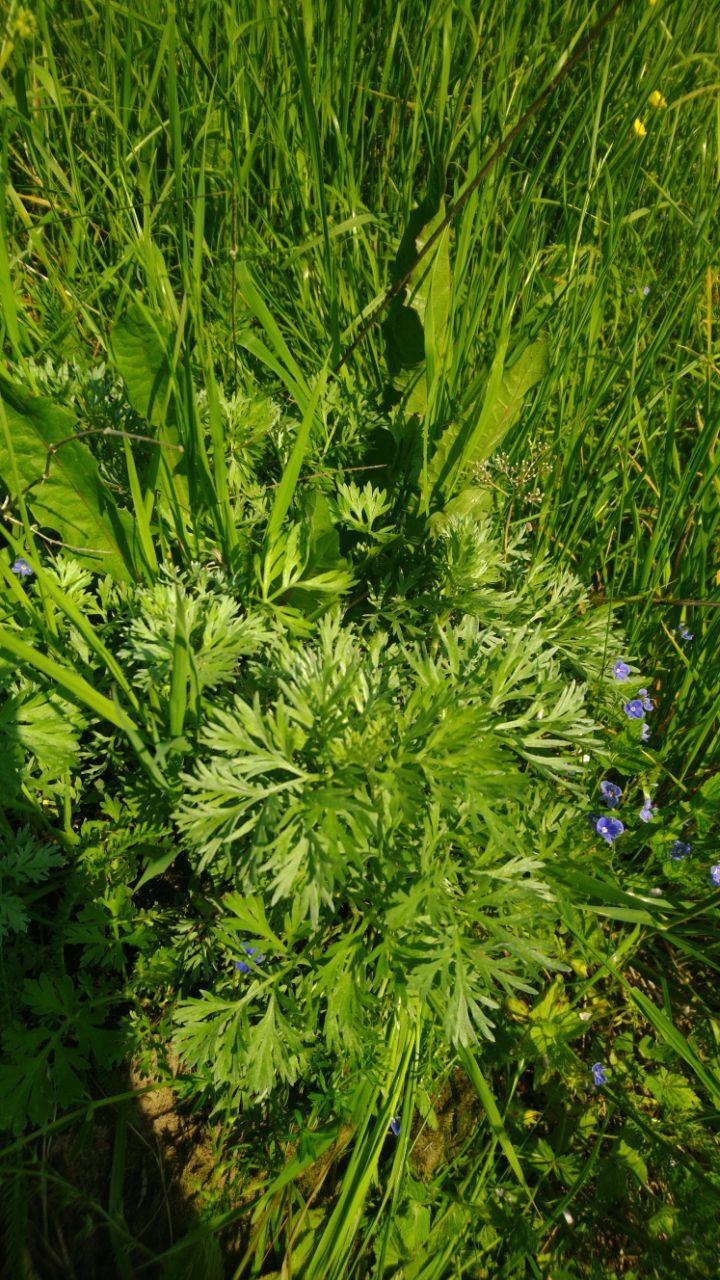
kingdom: Plantae
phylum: Tracheophyta
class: Magnoliopsida
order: Asterales
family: Asteraceae
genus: Artemisia
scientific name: Artemisia absinthium
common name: Wormwood
